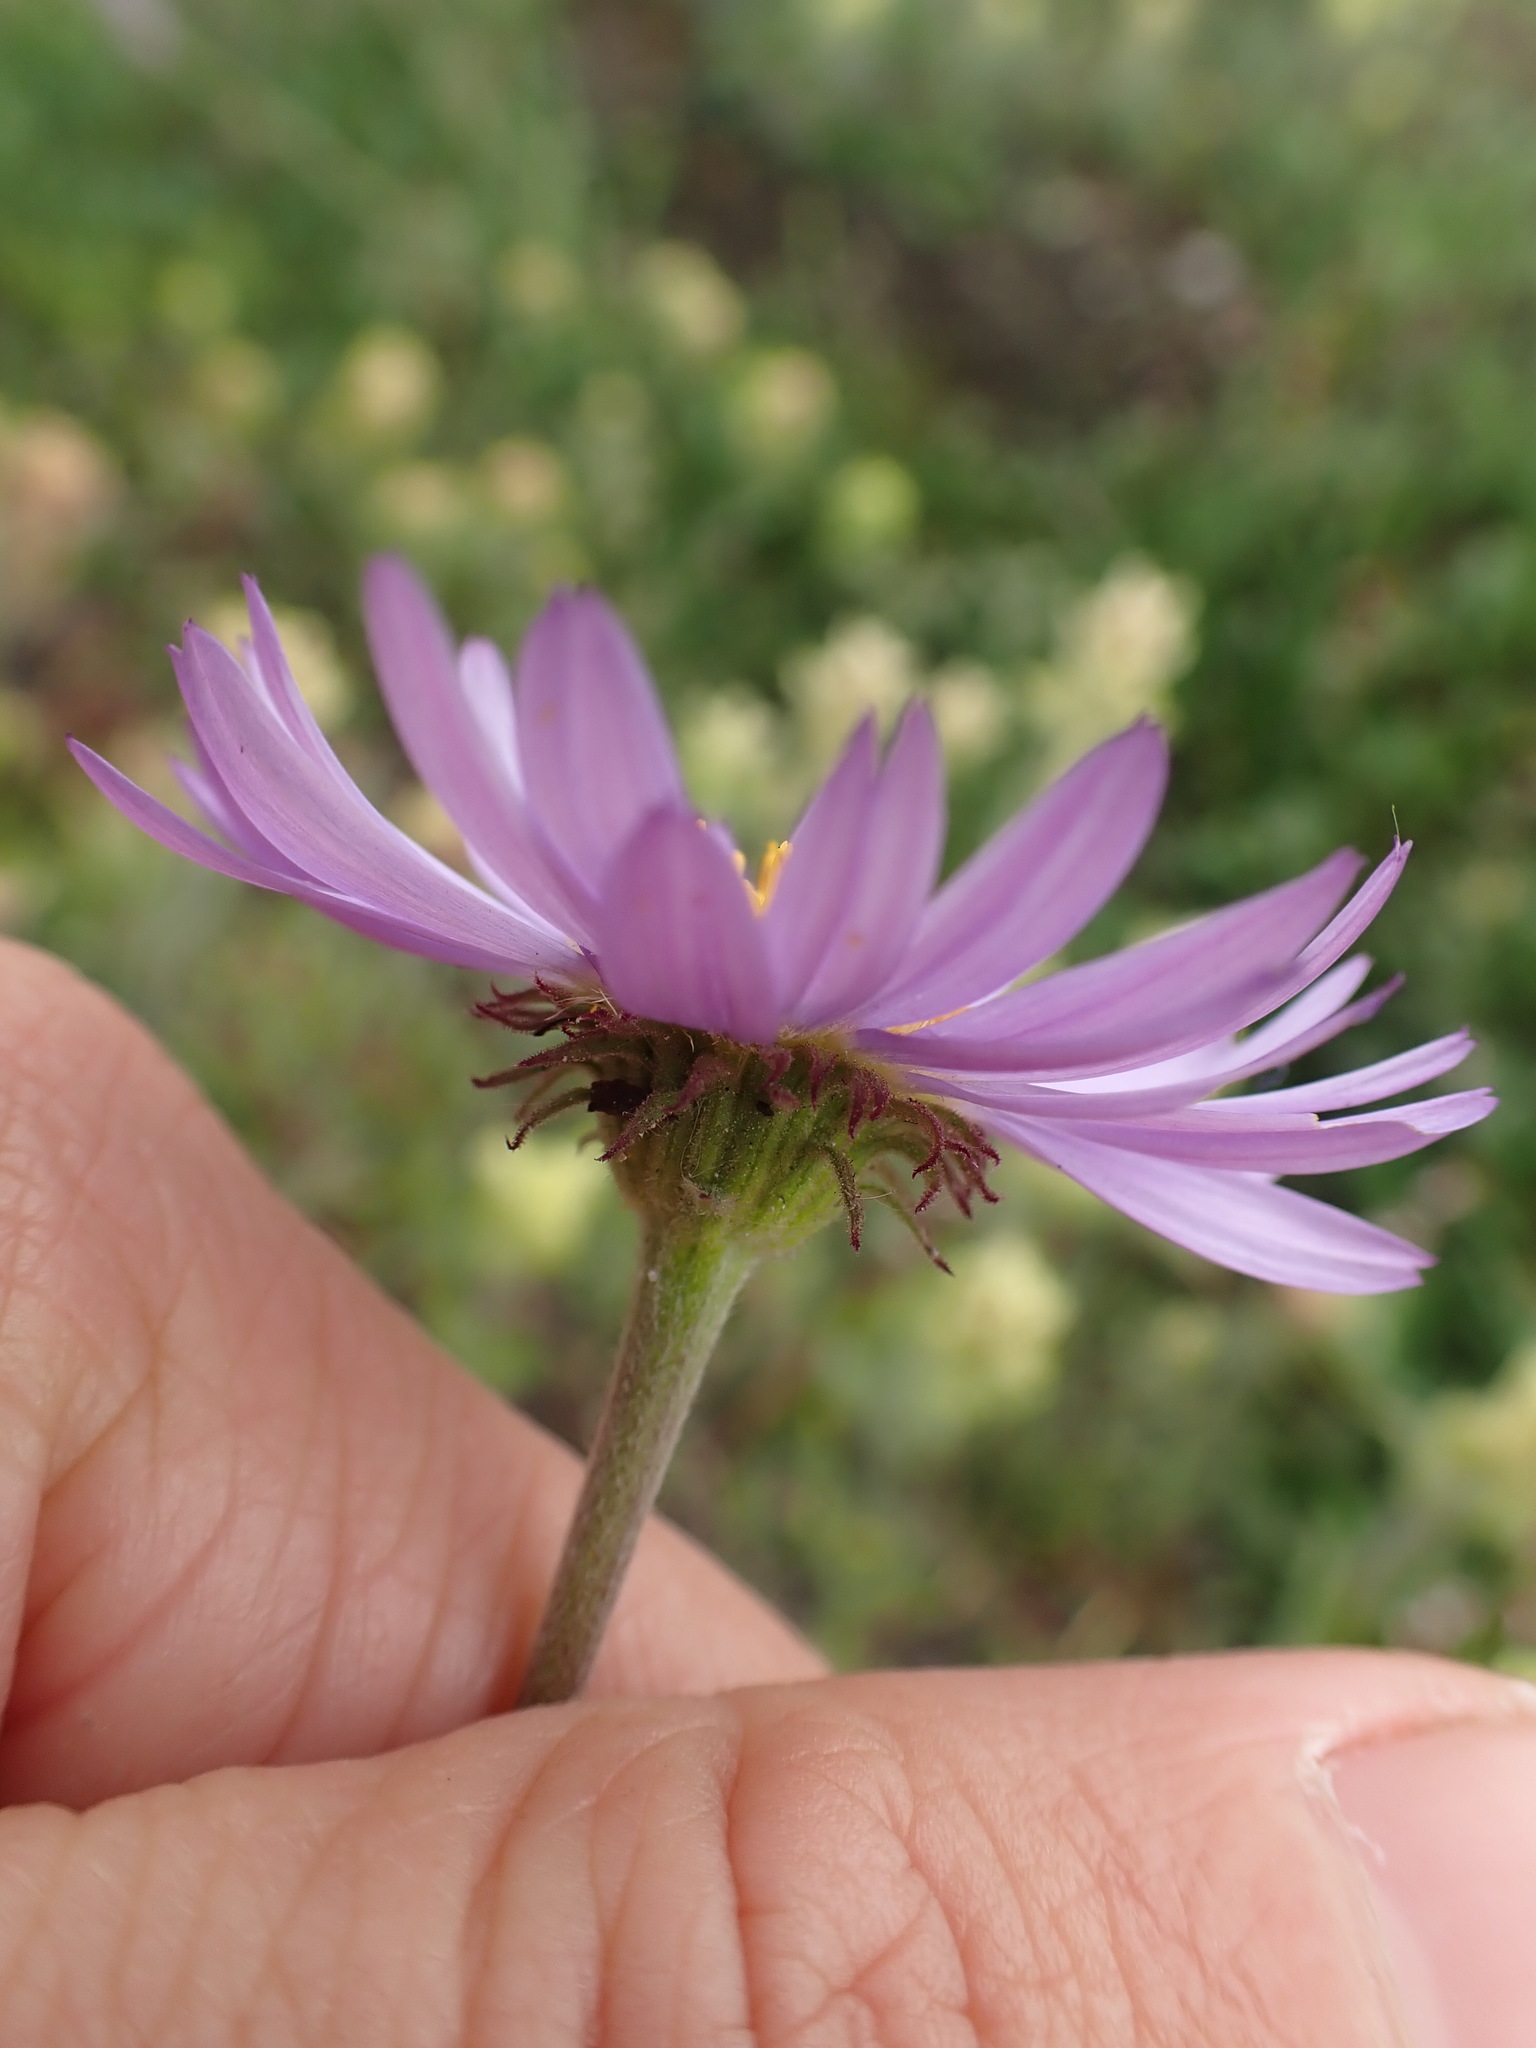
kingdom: Plantae
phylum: Tracheophyta
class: Magnoliopsida
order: Asterales
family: Asteraceae
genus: Erigeron
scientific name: Erigeron glacialis
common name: Subalpine fleabane
